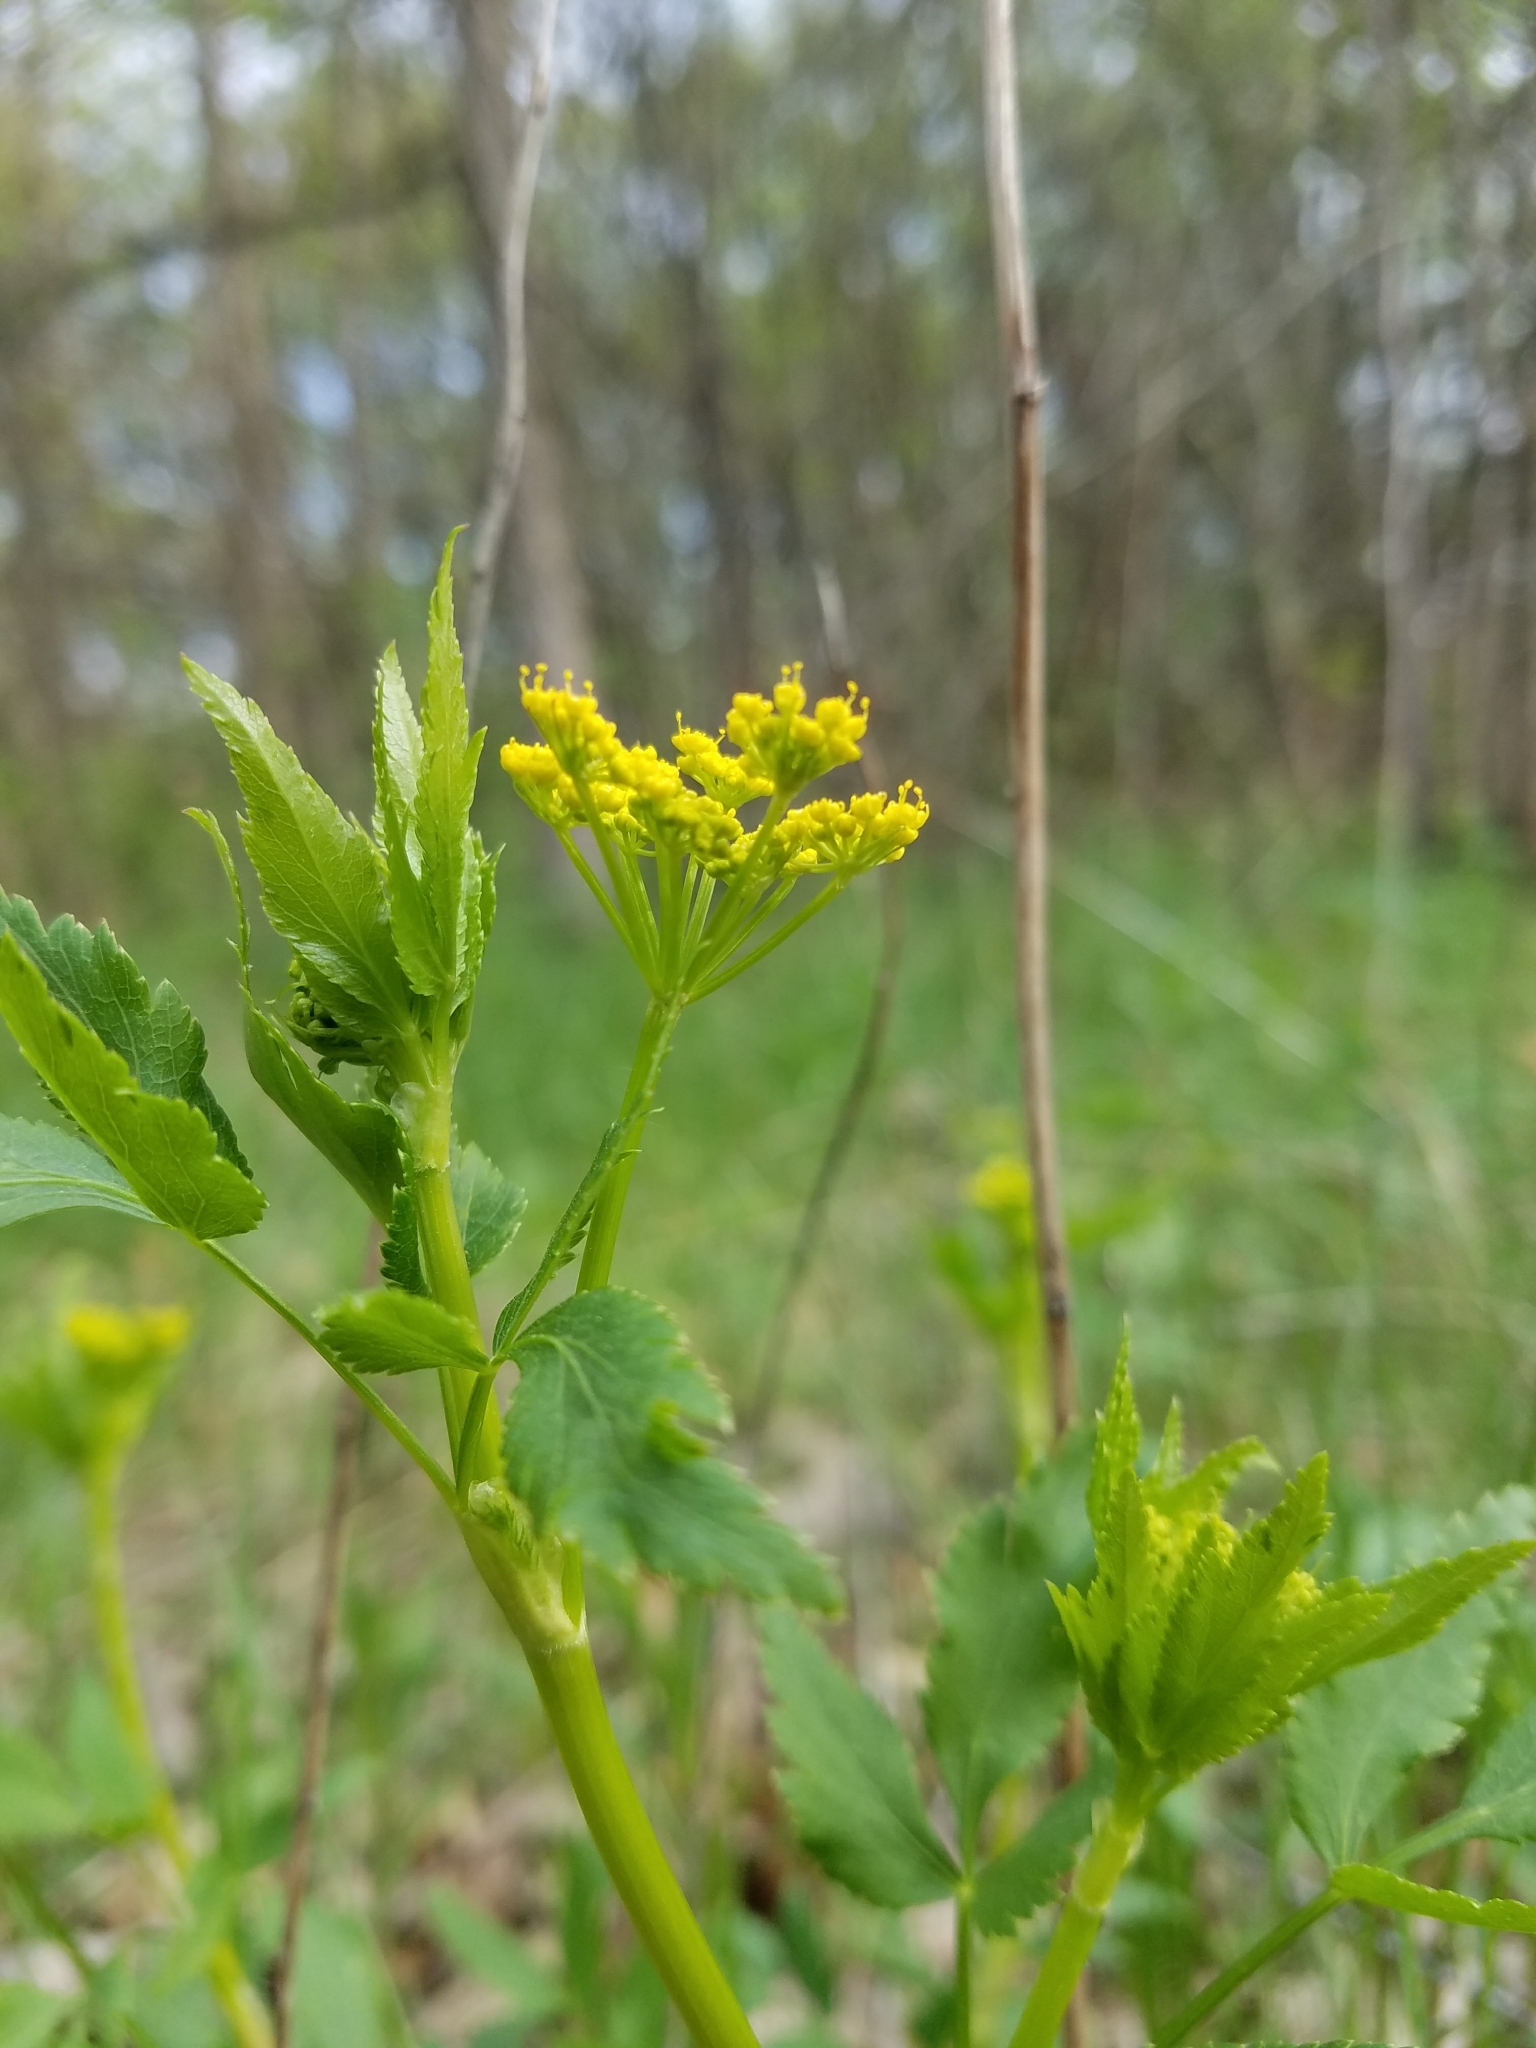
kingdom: Plantae
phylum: Tracheophyta
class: Magnoliopsida
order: Apiales
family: Apiaceae
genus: Zizia
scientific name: Zizia aurea
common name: Golden alexanders
